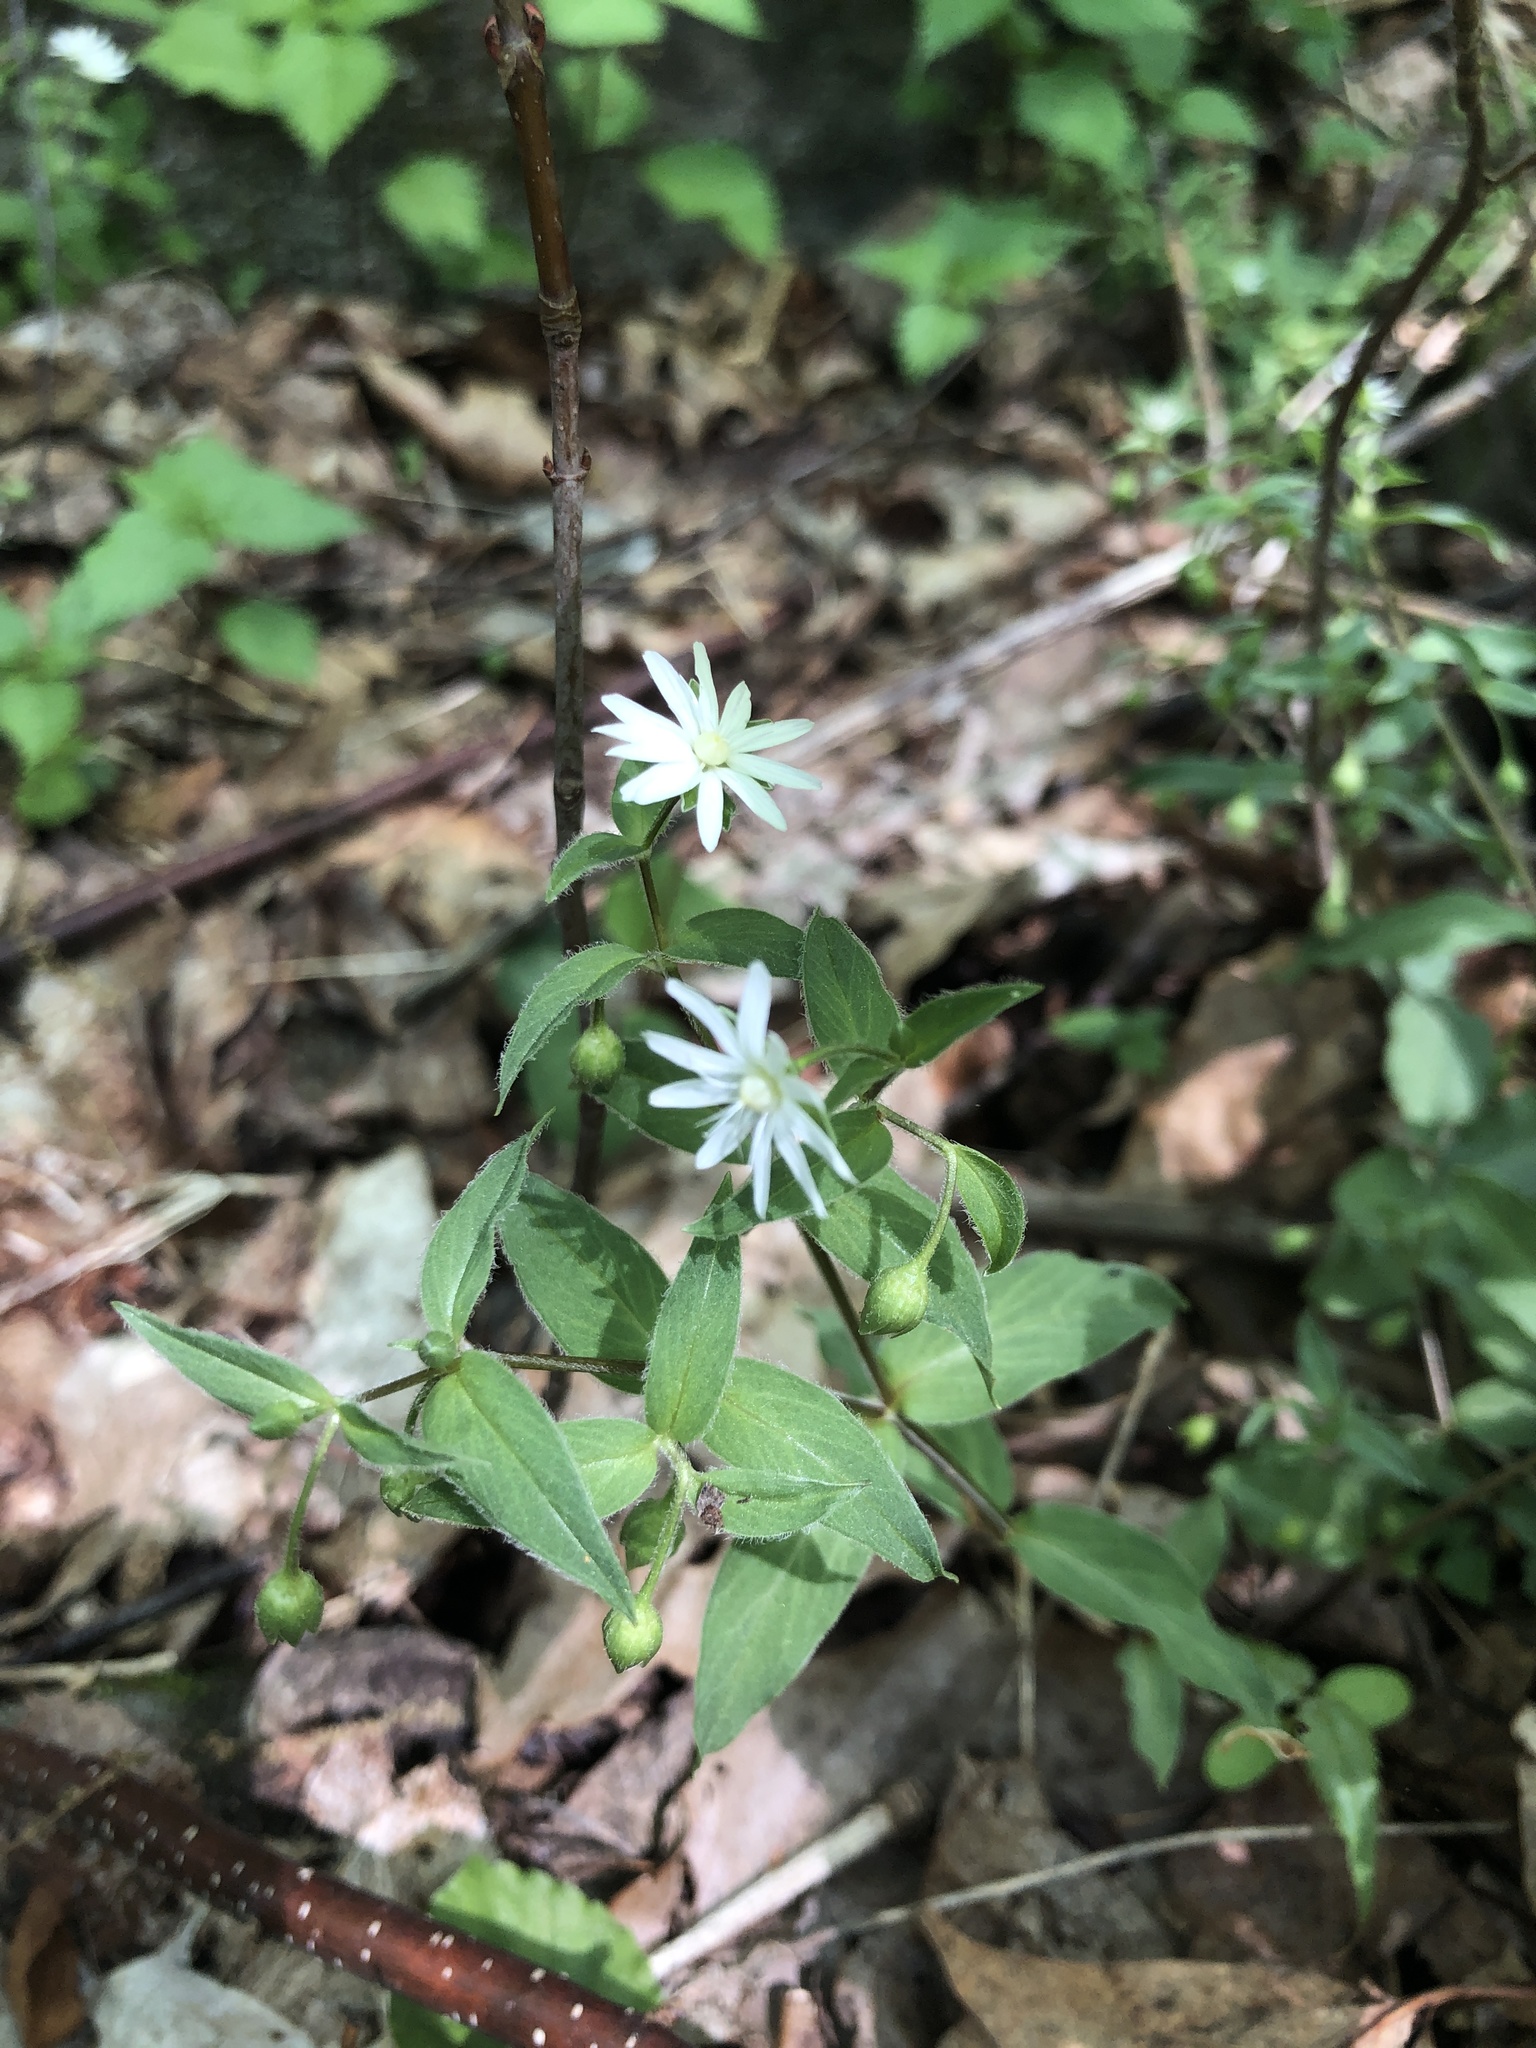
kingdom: Plantae
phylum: Tracheophyta
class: Magnoliopsida
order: Caryophyllales
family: Caryophyllaceae
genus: Stellaria
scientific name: Stellaria pubera
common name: Star chickweed
